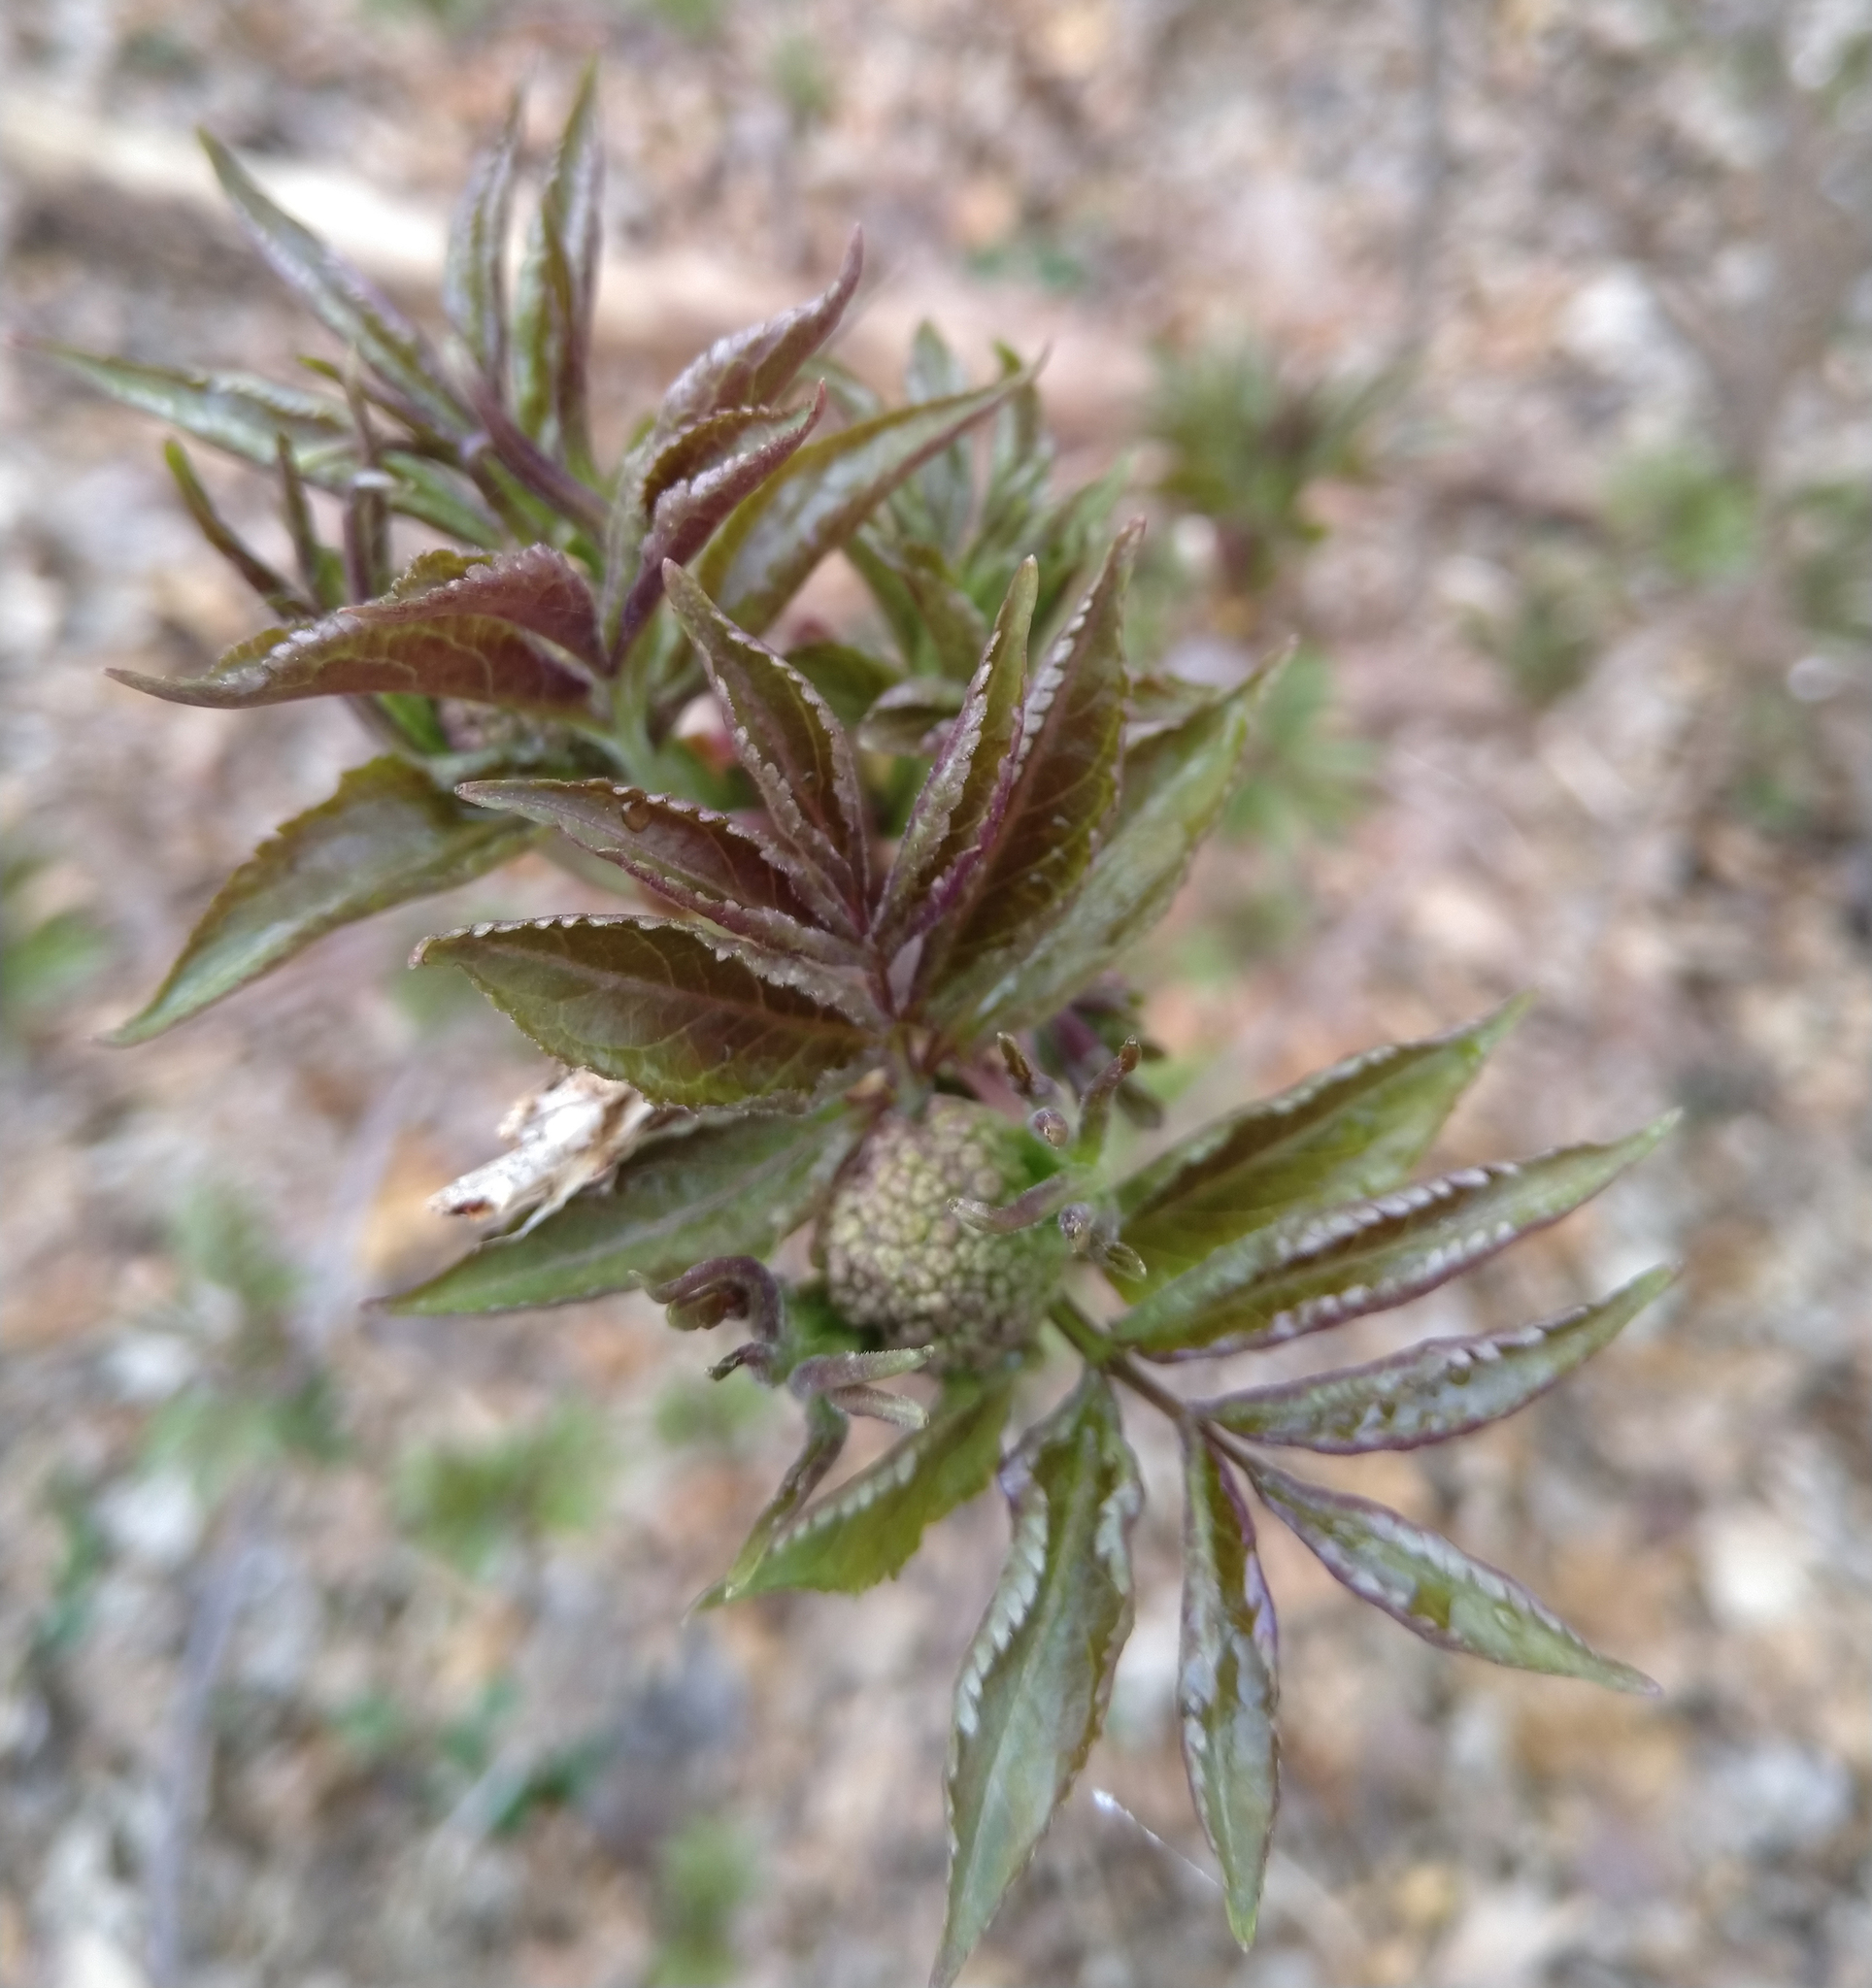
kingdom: Plantae
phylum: Tracheophyta
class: Magnoliopsida
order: Dipsacales
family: Viburnaceae
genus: Sambucus
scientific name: Sambucus racemosa
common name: Red-berried elder
